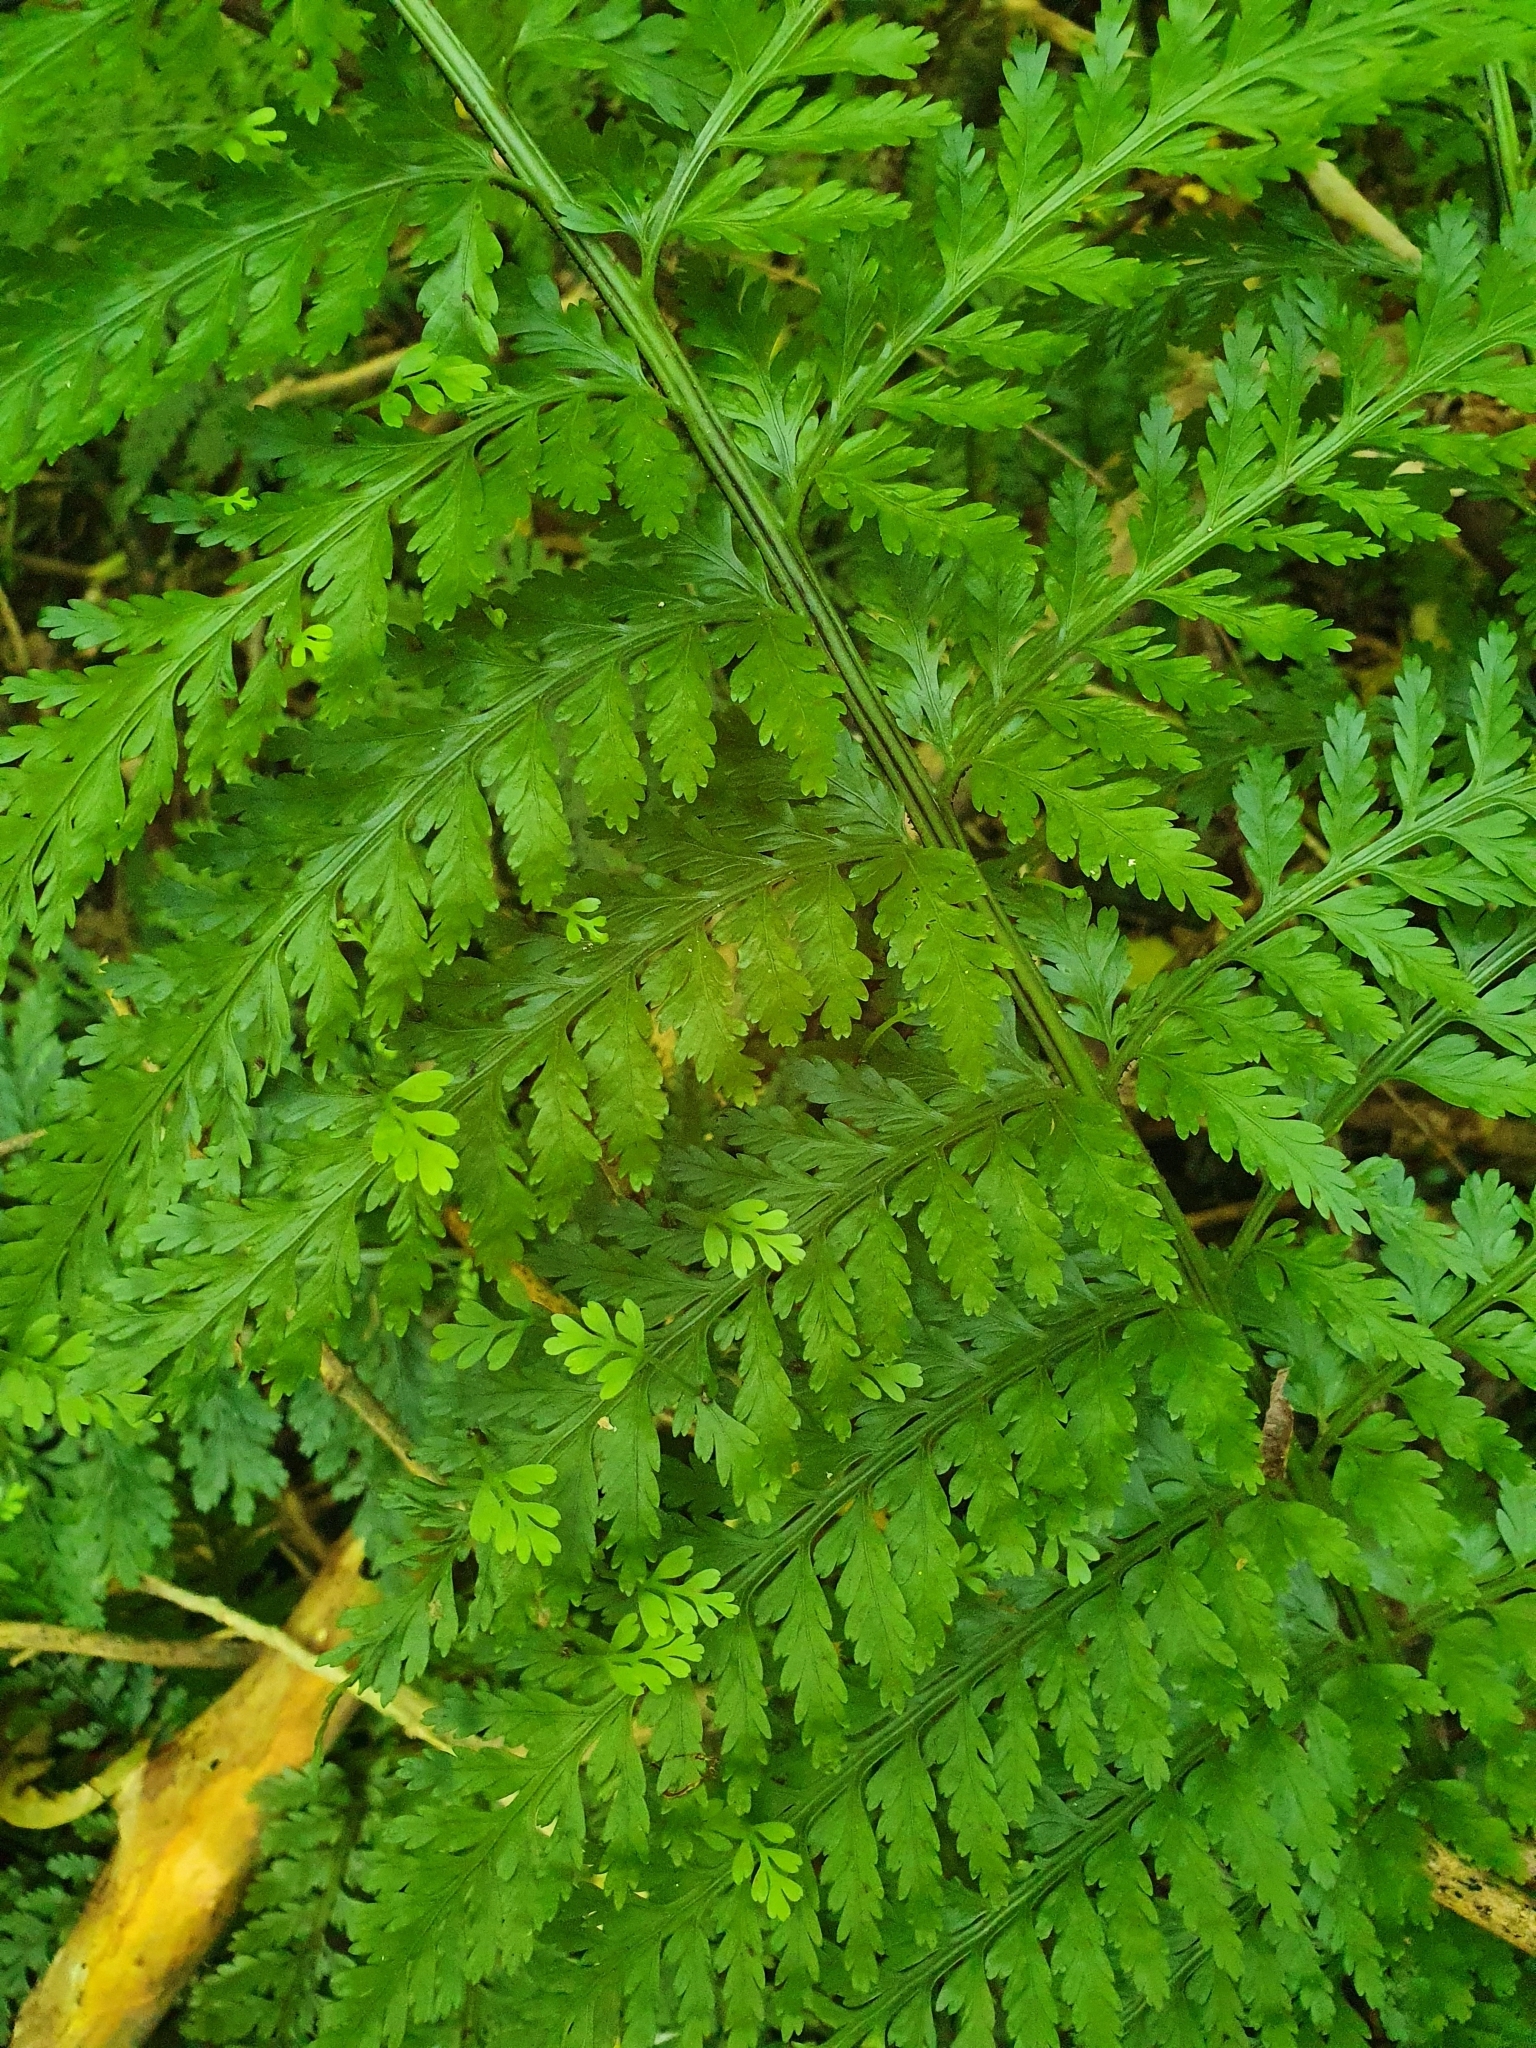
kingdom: Plantae
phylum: Tracheophyta
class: Polypodiopsida
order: Polypodiales
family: Aspleniaceae
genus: Asplenium
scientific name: Asplenium bulbiferum
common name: Mother fern
